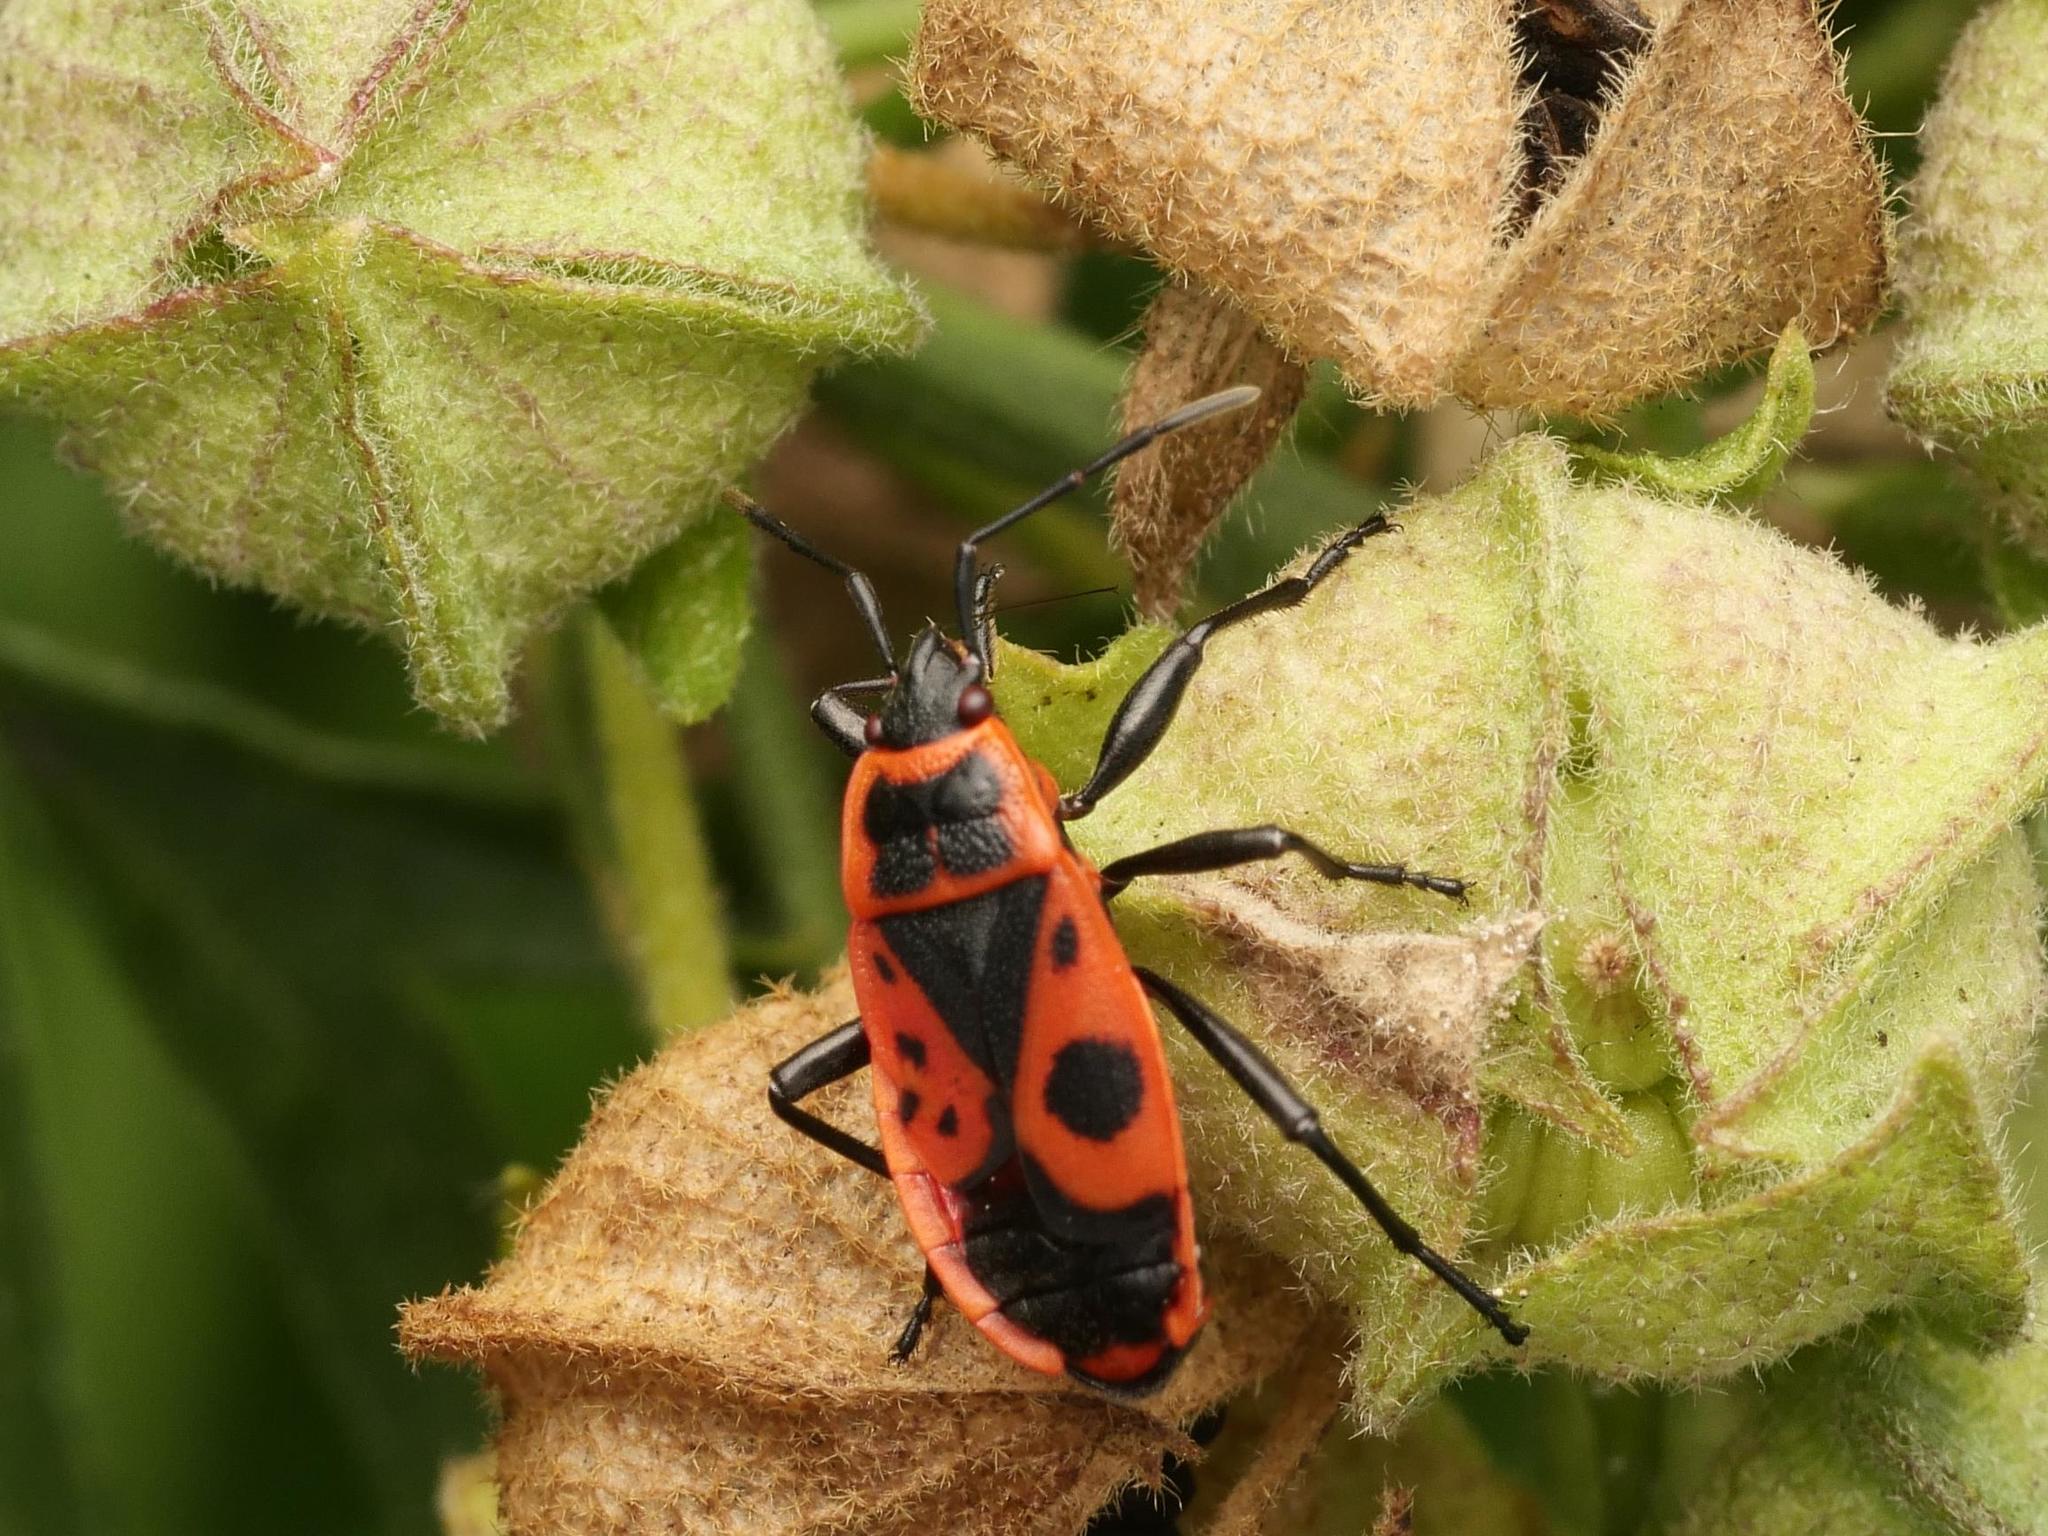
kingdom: Animalia
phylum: Arthropoda
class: Insecta
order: Hemiptera
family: Pyrrhocoridae
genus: Pyrrhocoris
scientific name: Pyrrhocoris apterus
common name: Firebug
